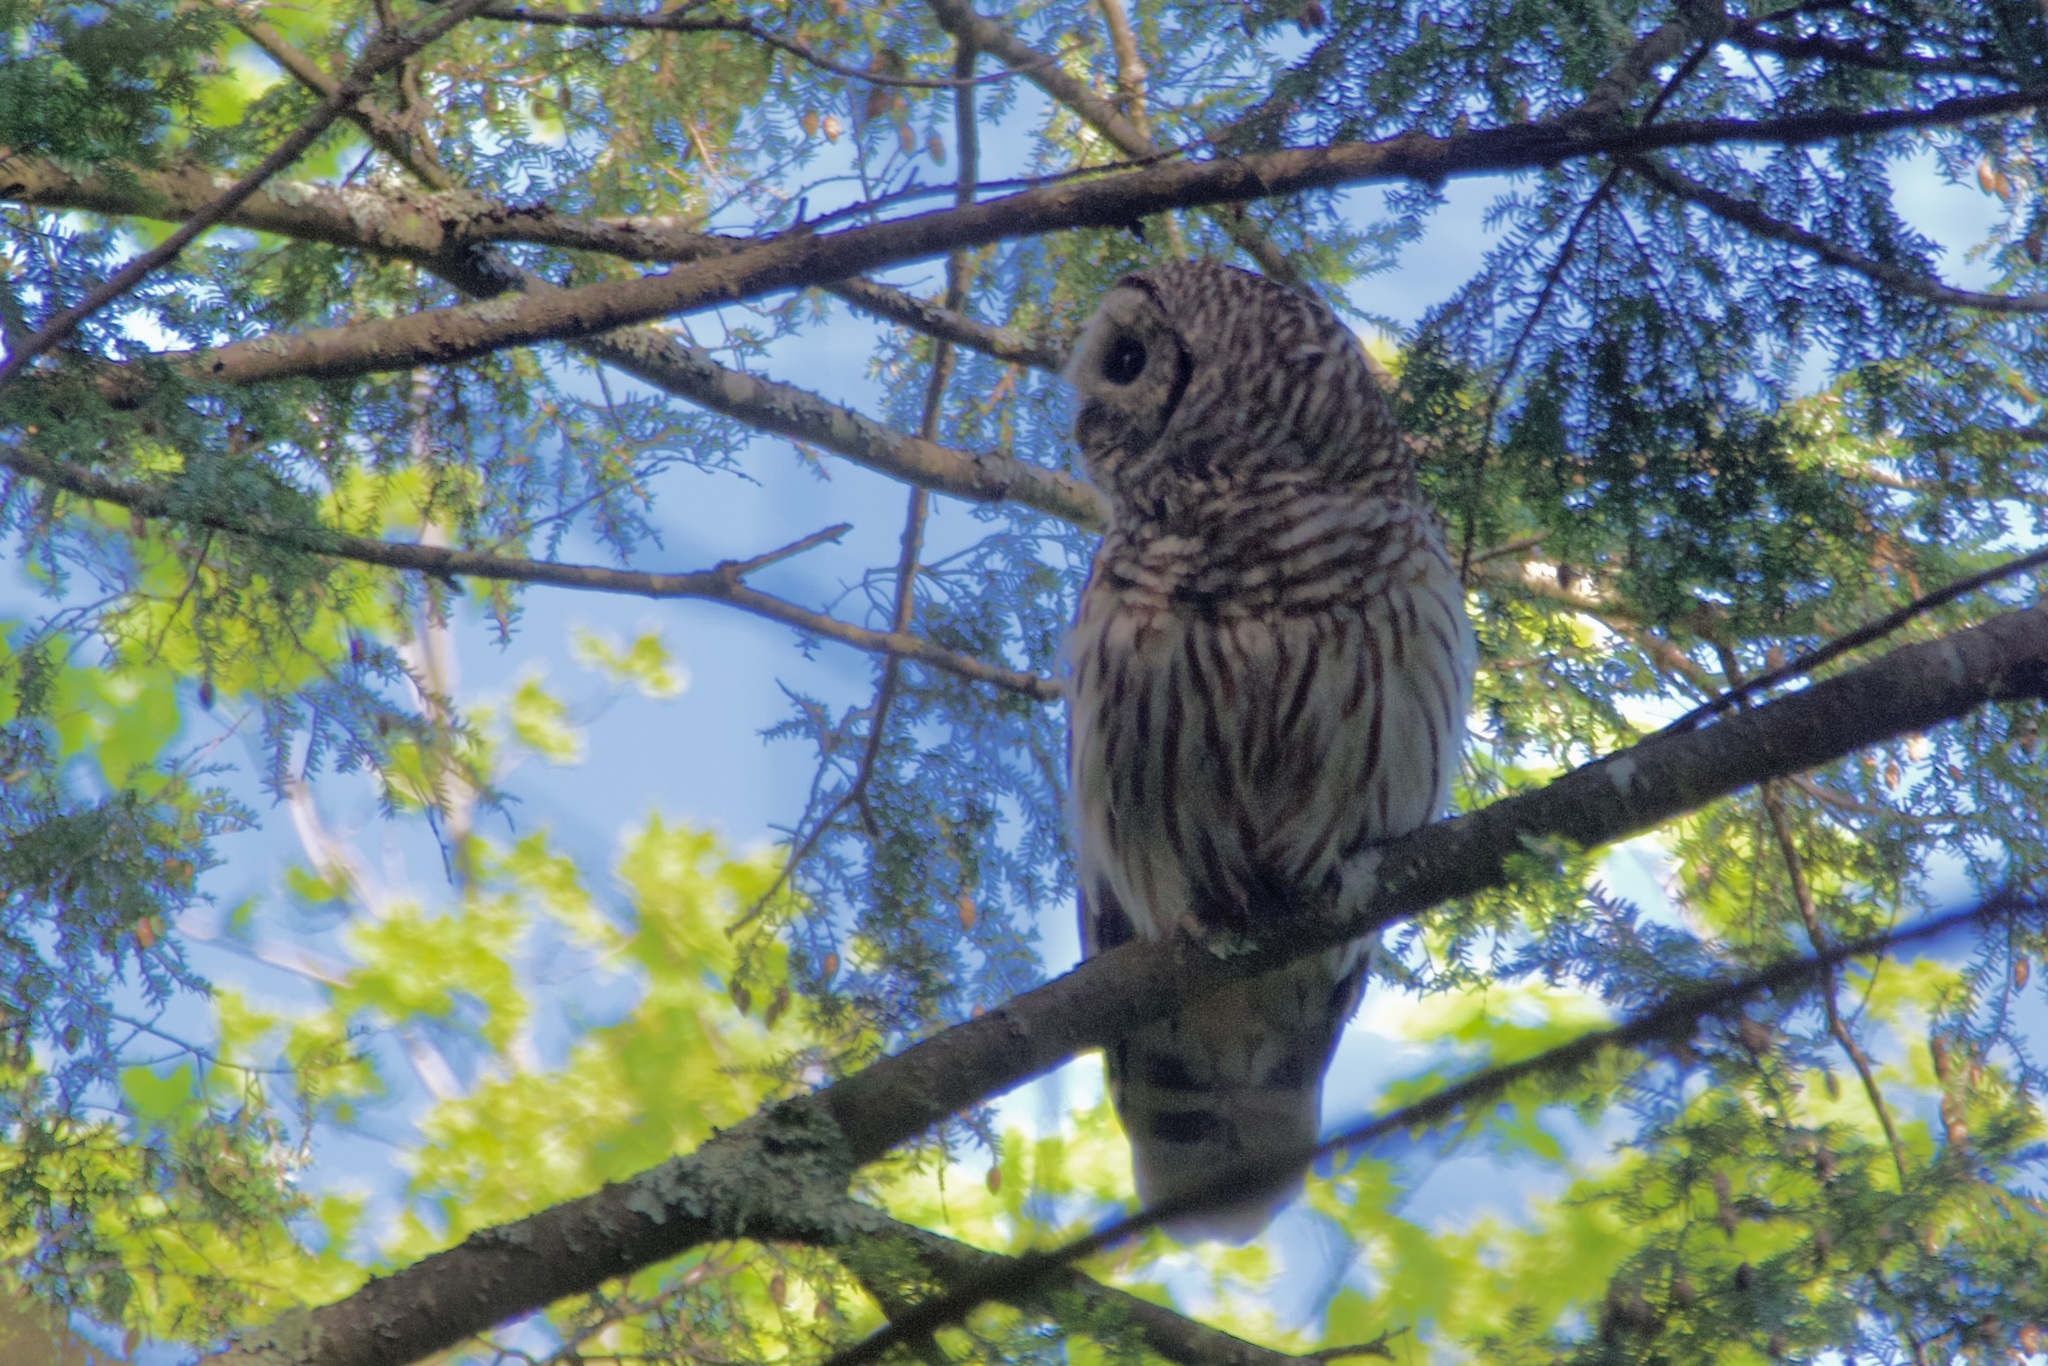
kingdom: Animalia
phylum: Chordata
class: Aves
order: Strigiformes
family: Strigidae
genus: Strix
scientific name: Strix varia
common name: Barred owl
